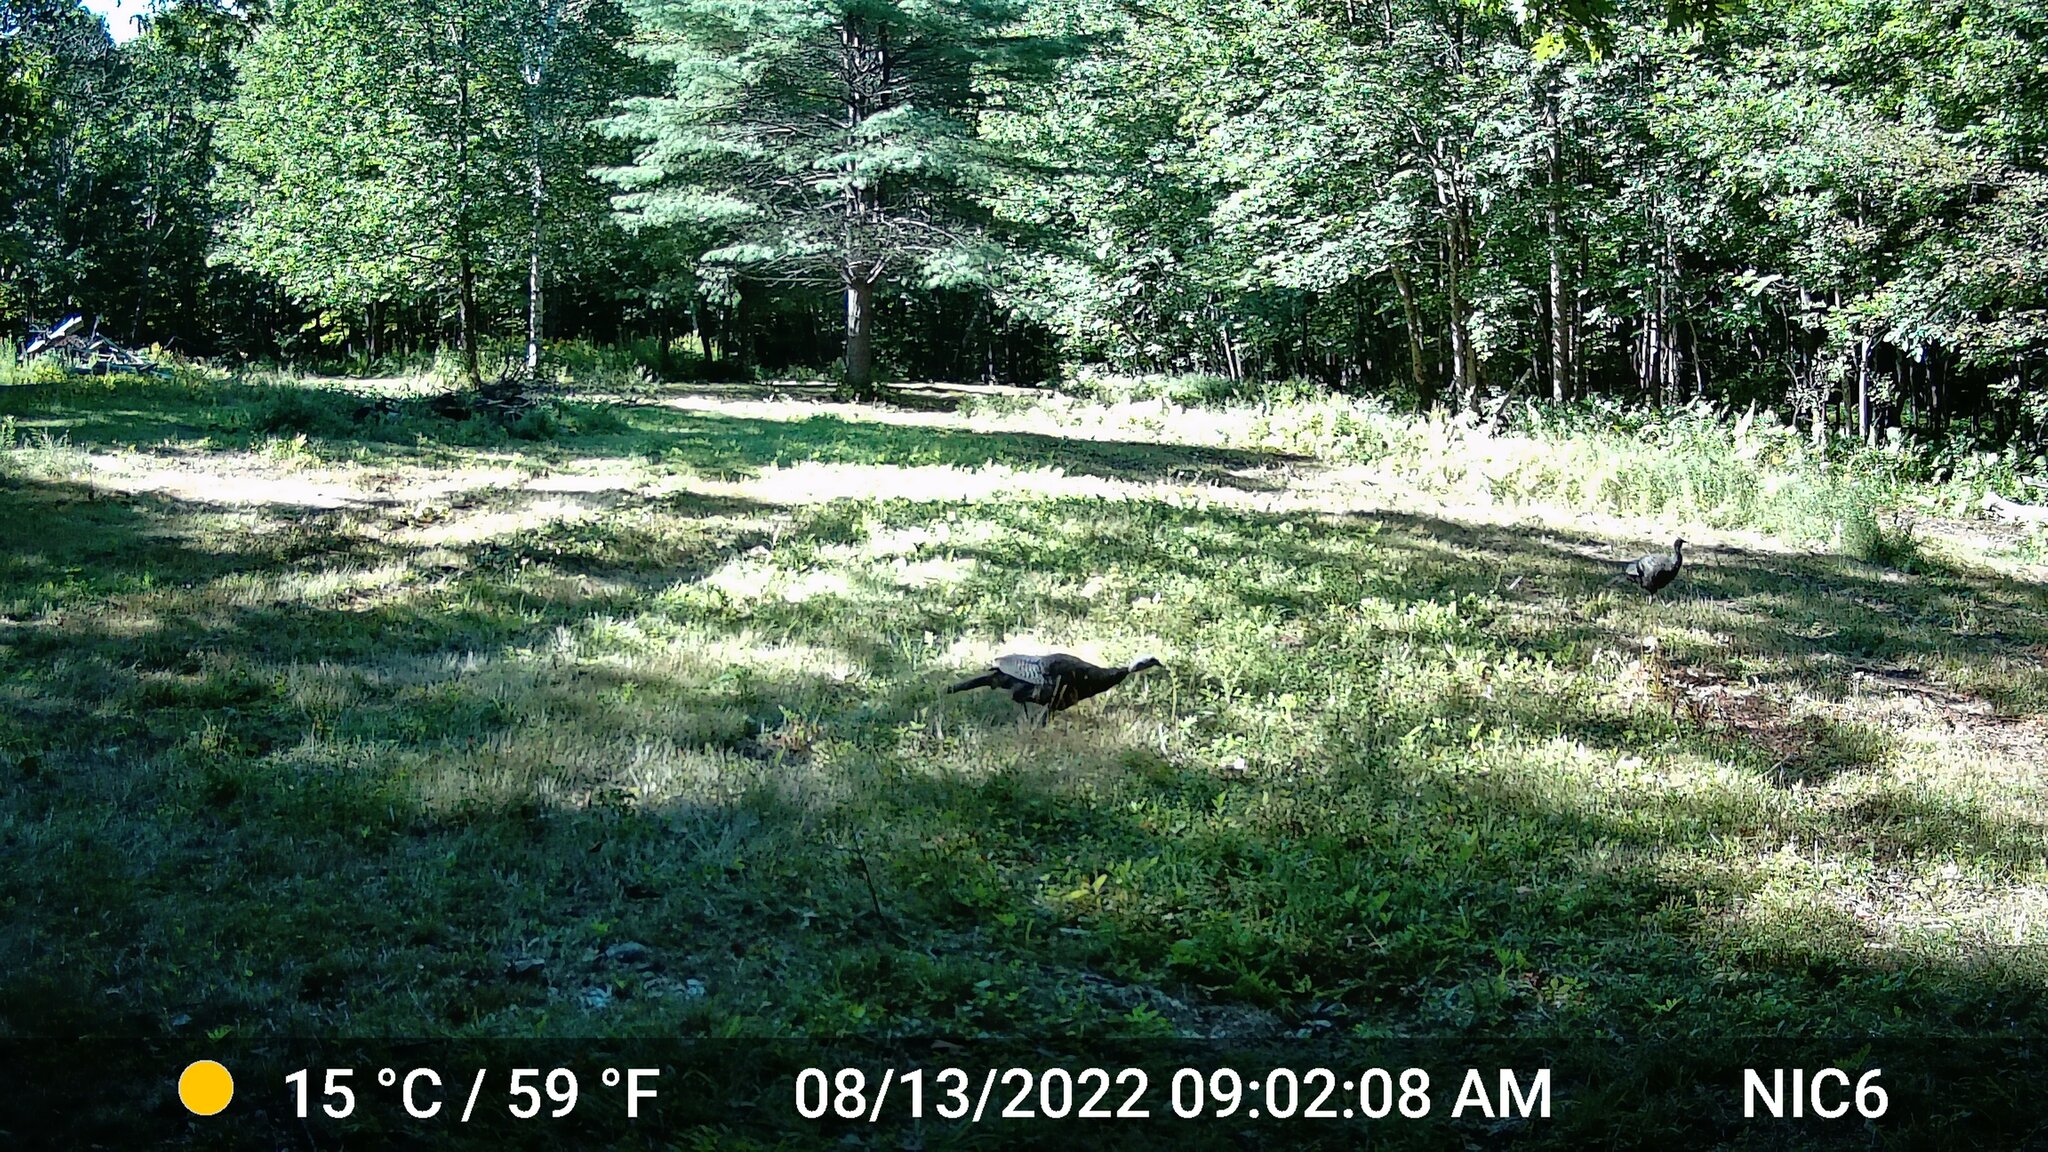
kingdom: Animalia
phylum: Chordata
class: Aves
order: Galliformes
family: Phasianidae
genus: Meleagris
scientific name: Meleagris gallopavo
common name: Wild turkey
